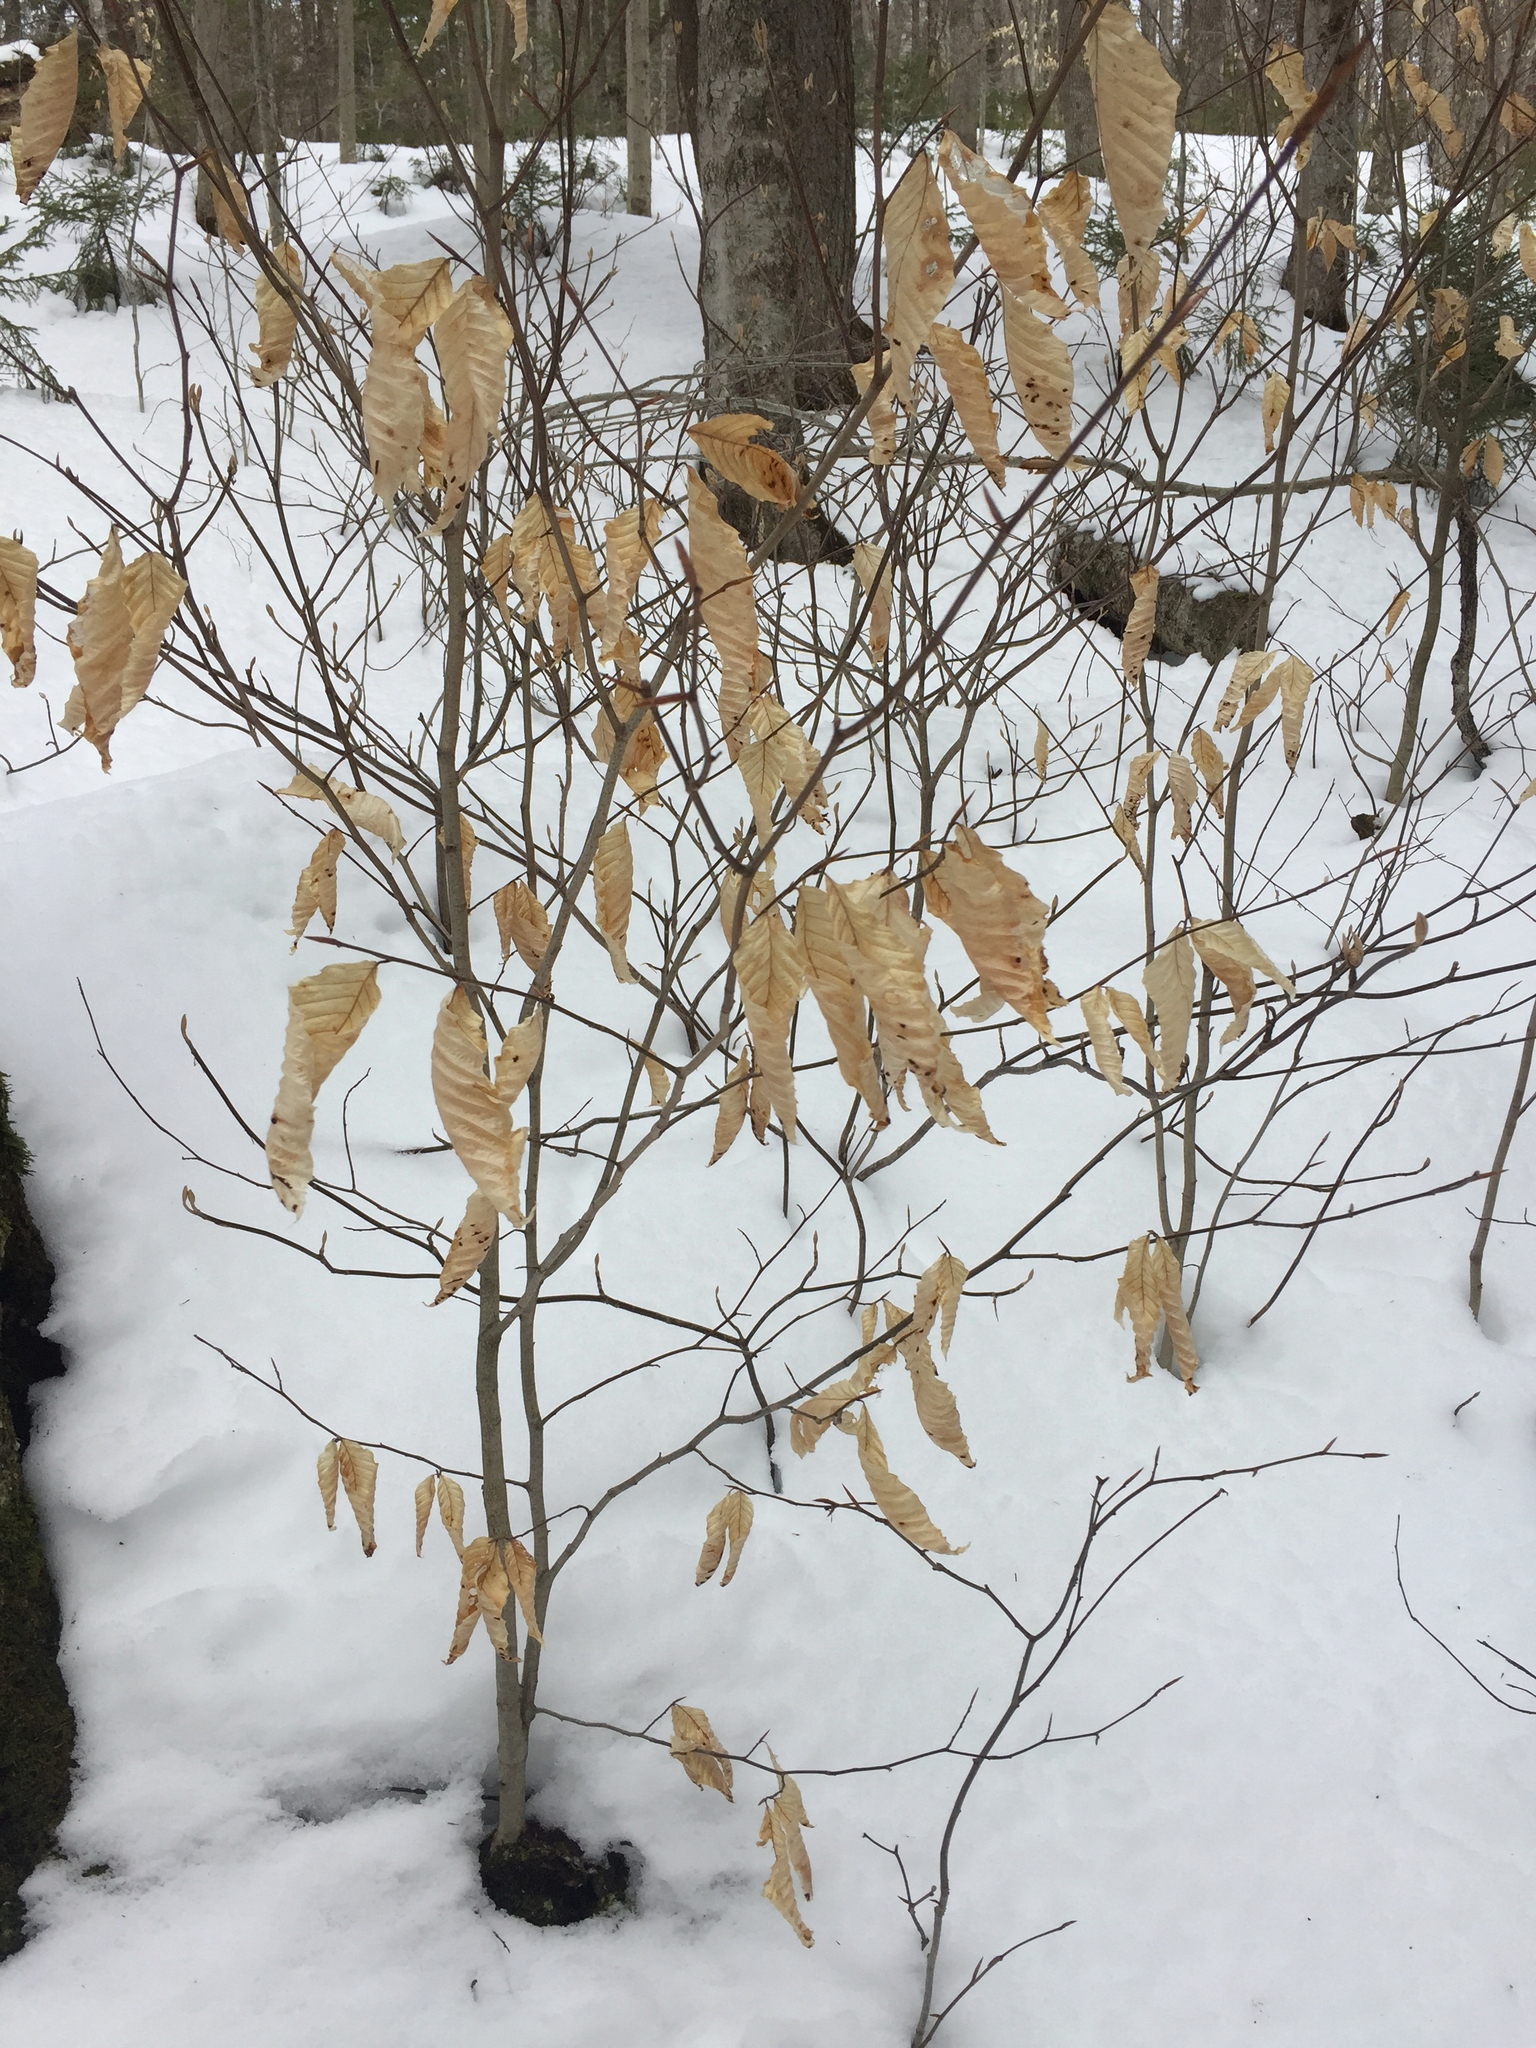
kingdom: Plantae
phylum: Tracheophyta
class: Magnoliopsida
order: Fagales
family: Fagaceae
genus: Fagus
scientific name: Fagus grandifolia
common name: American beech
